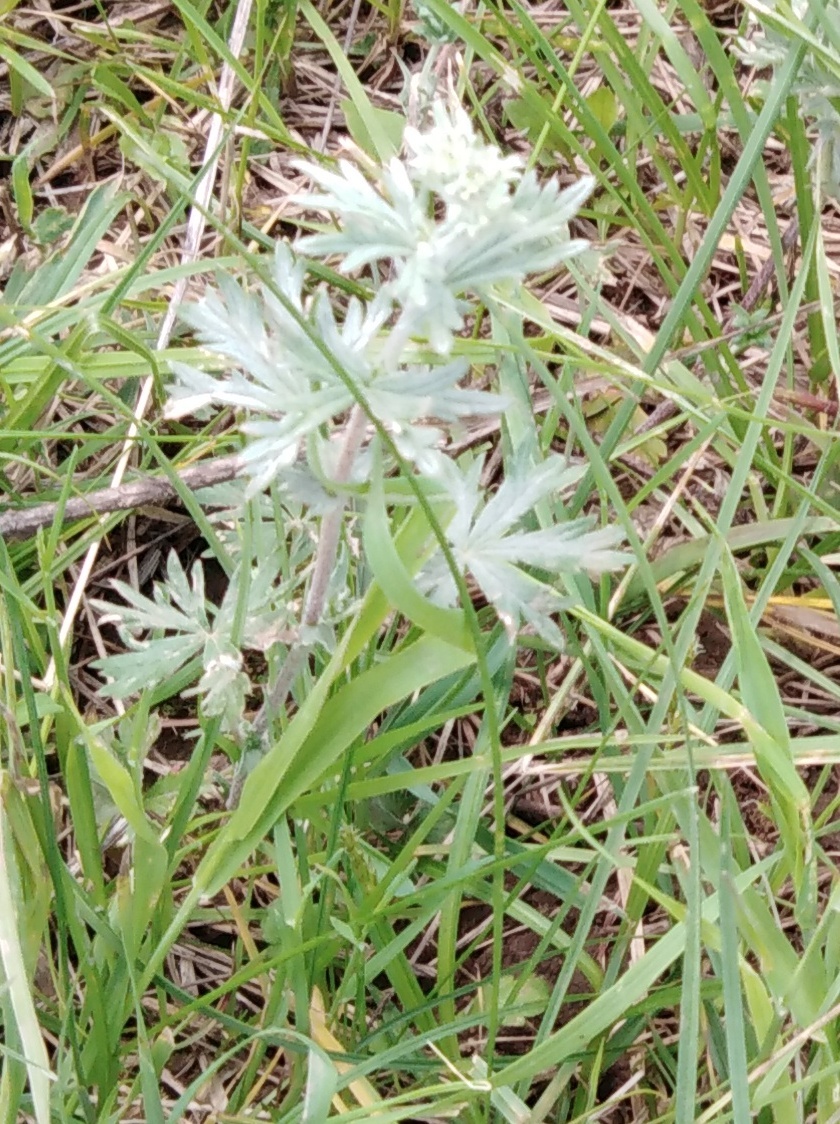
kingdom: Plantae
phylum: Tracheophyta
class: Magnoliopsida
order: Rosales
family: Rosaceae
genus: Potentilla
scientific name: Potentilla argentea
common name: Hoary cinquefoil
